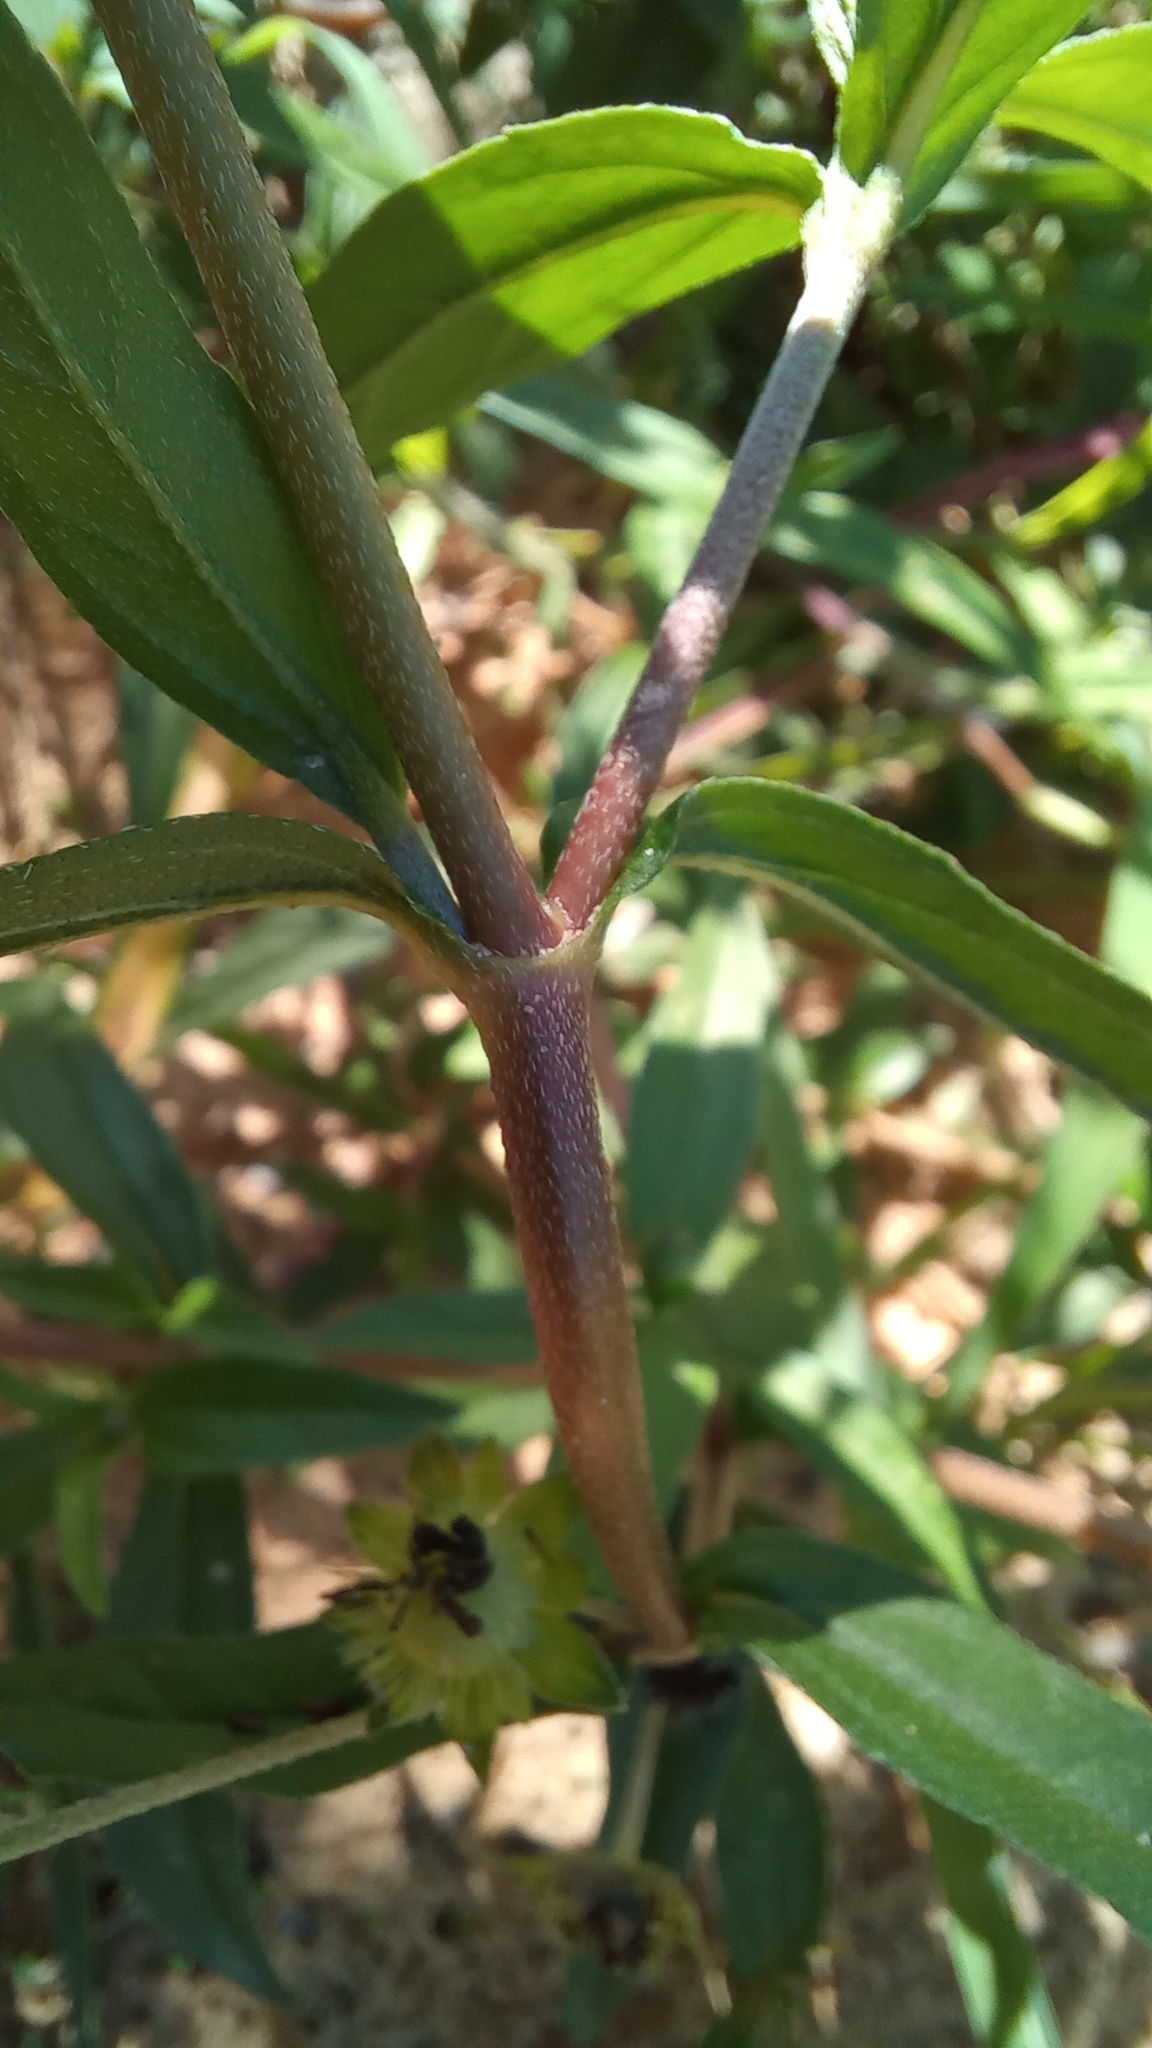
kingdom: Plantae
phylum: Tracheophyta
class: Magnoliopsida
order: Asterales
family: Asteraceae
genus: Eclipta
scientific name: Eclipta prostrata
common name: False daisy
